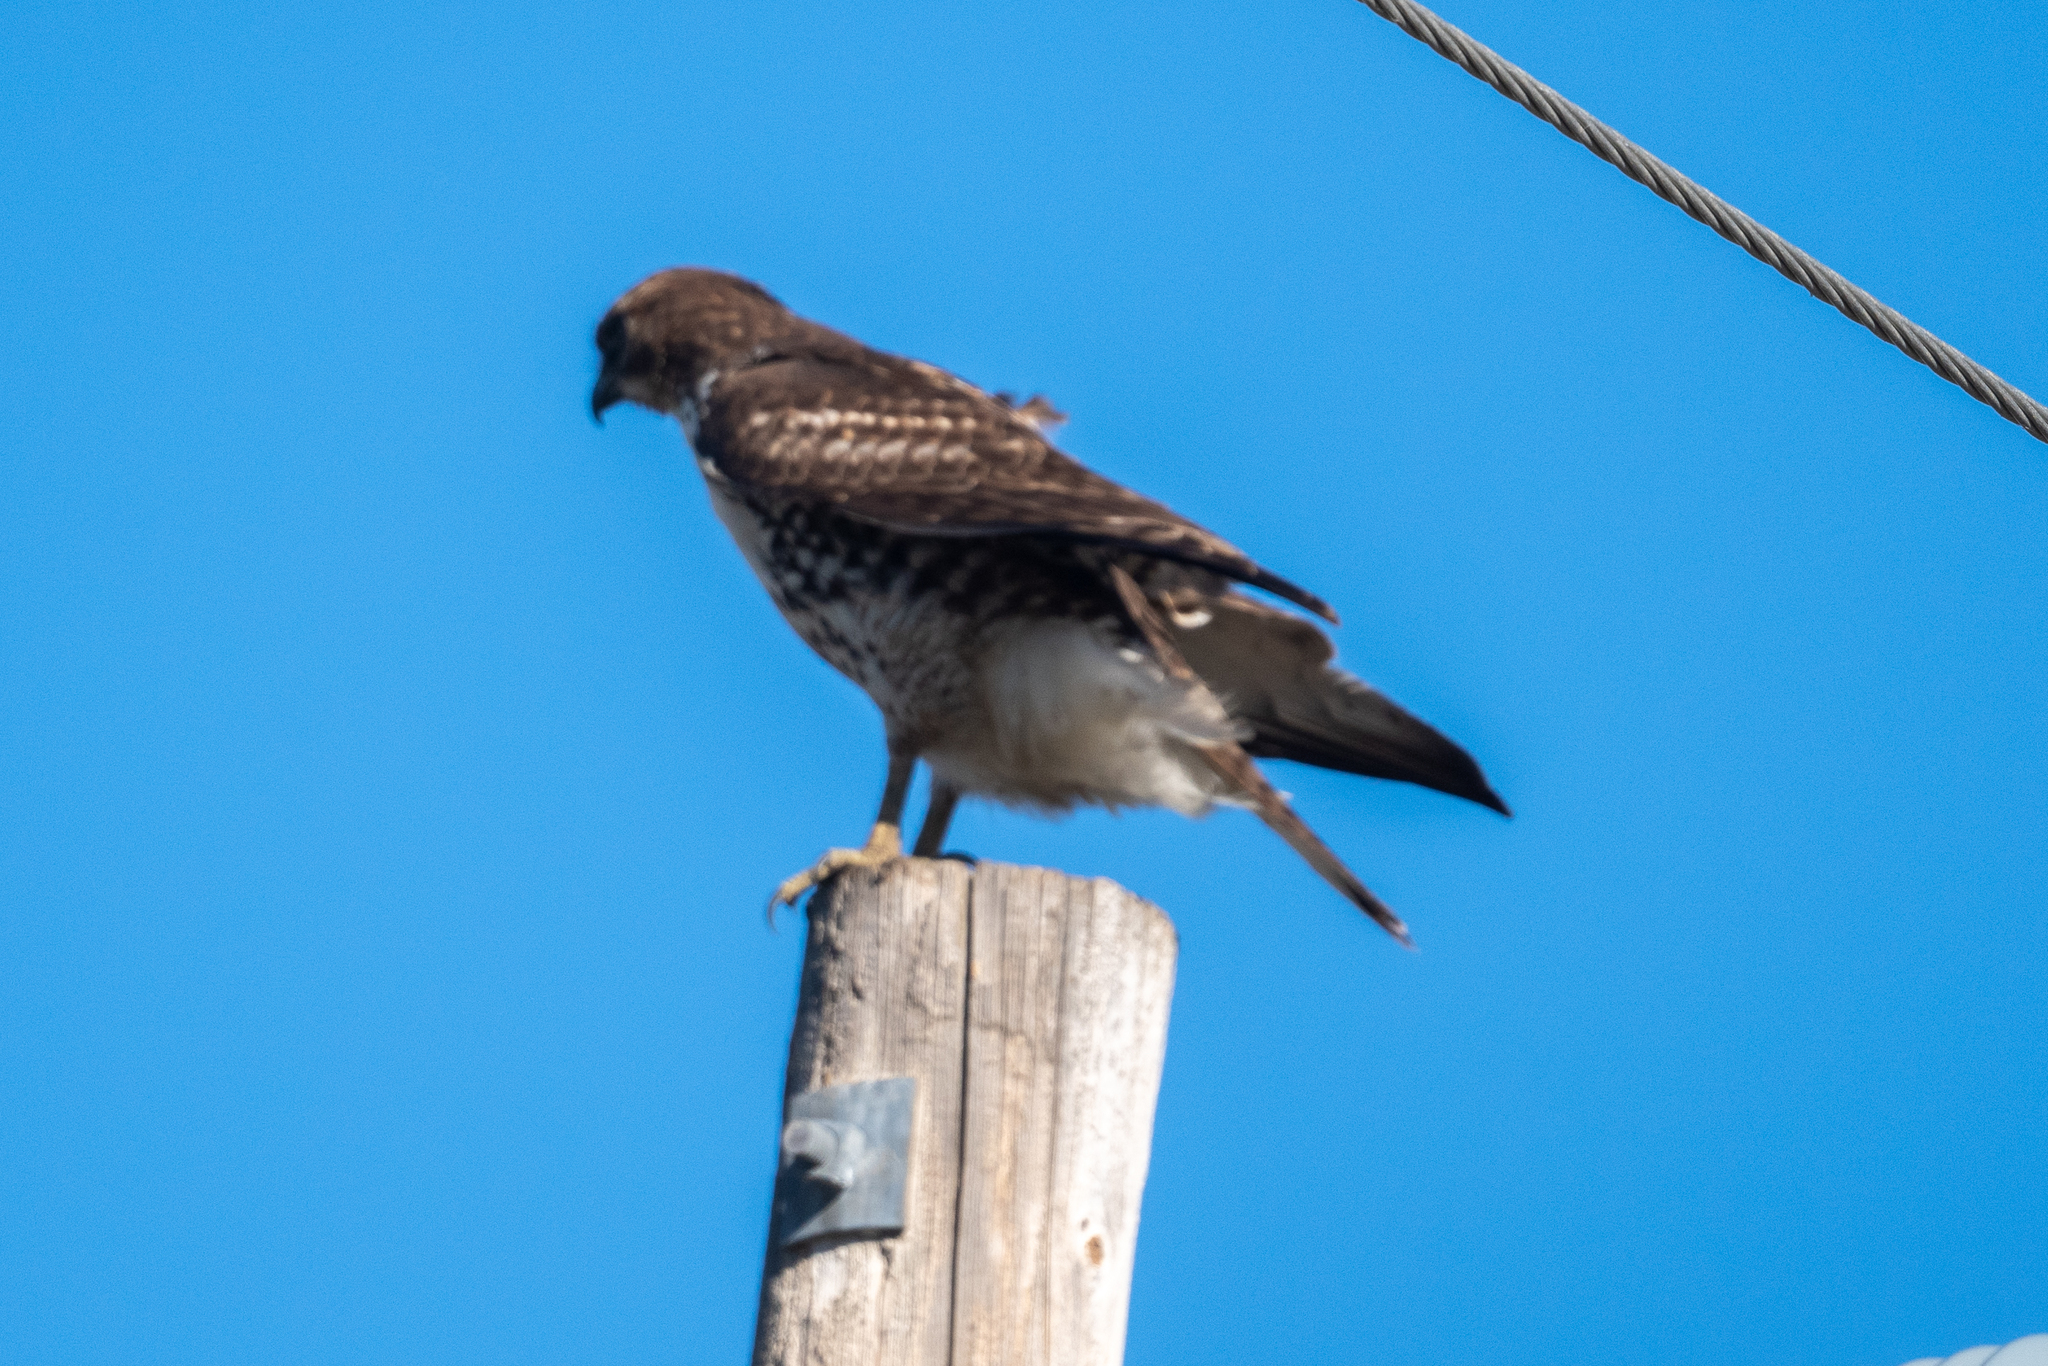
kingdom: Animalia
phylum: Chordata
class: Aves
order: Accipitriformes
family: Accipitridae
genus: Buteo
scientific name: Buteo jamaicensis
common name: Red-tailed hawk
